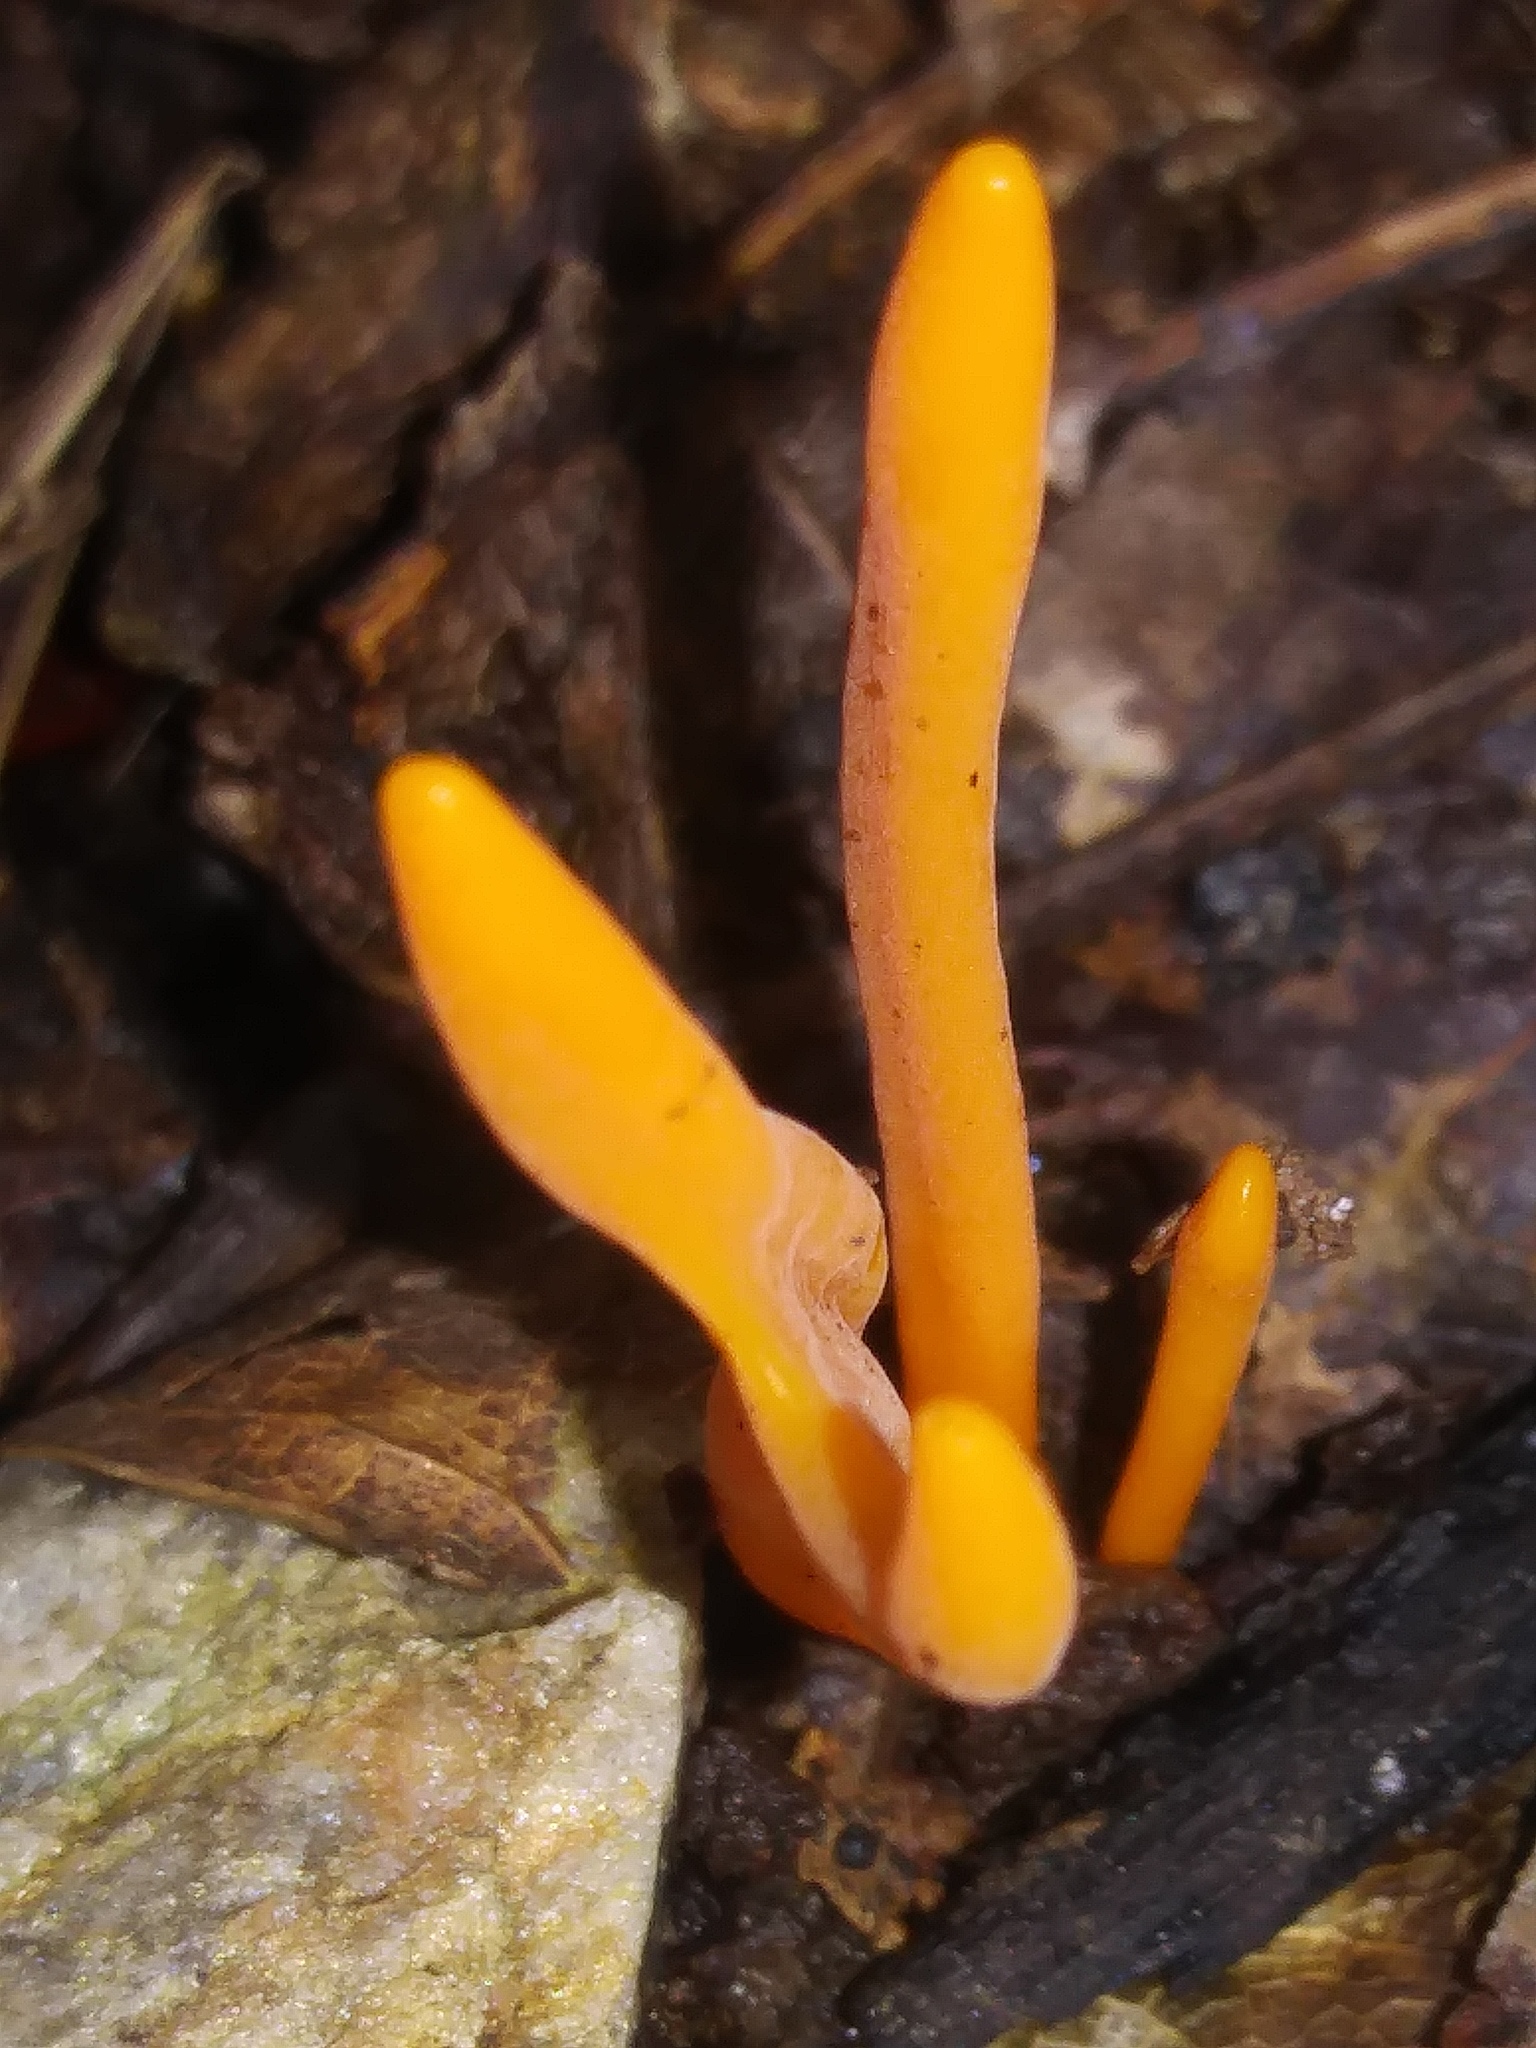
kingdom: Fungi
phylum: Basidiomycota
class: Agaricomycetes
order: Agaricales
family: Clavariaceae
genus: Clavulinopsis
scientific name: Clavulinopsis aurantiocinnabarina
